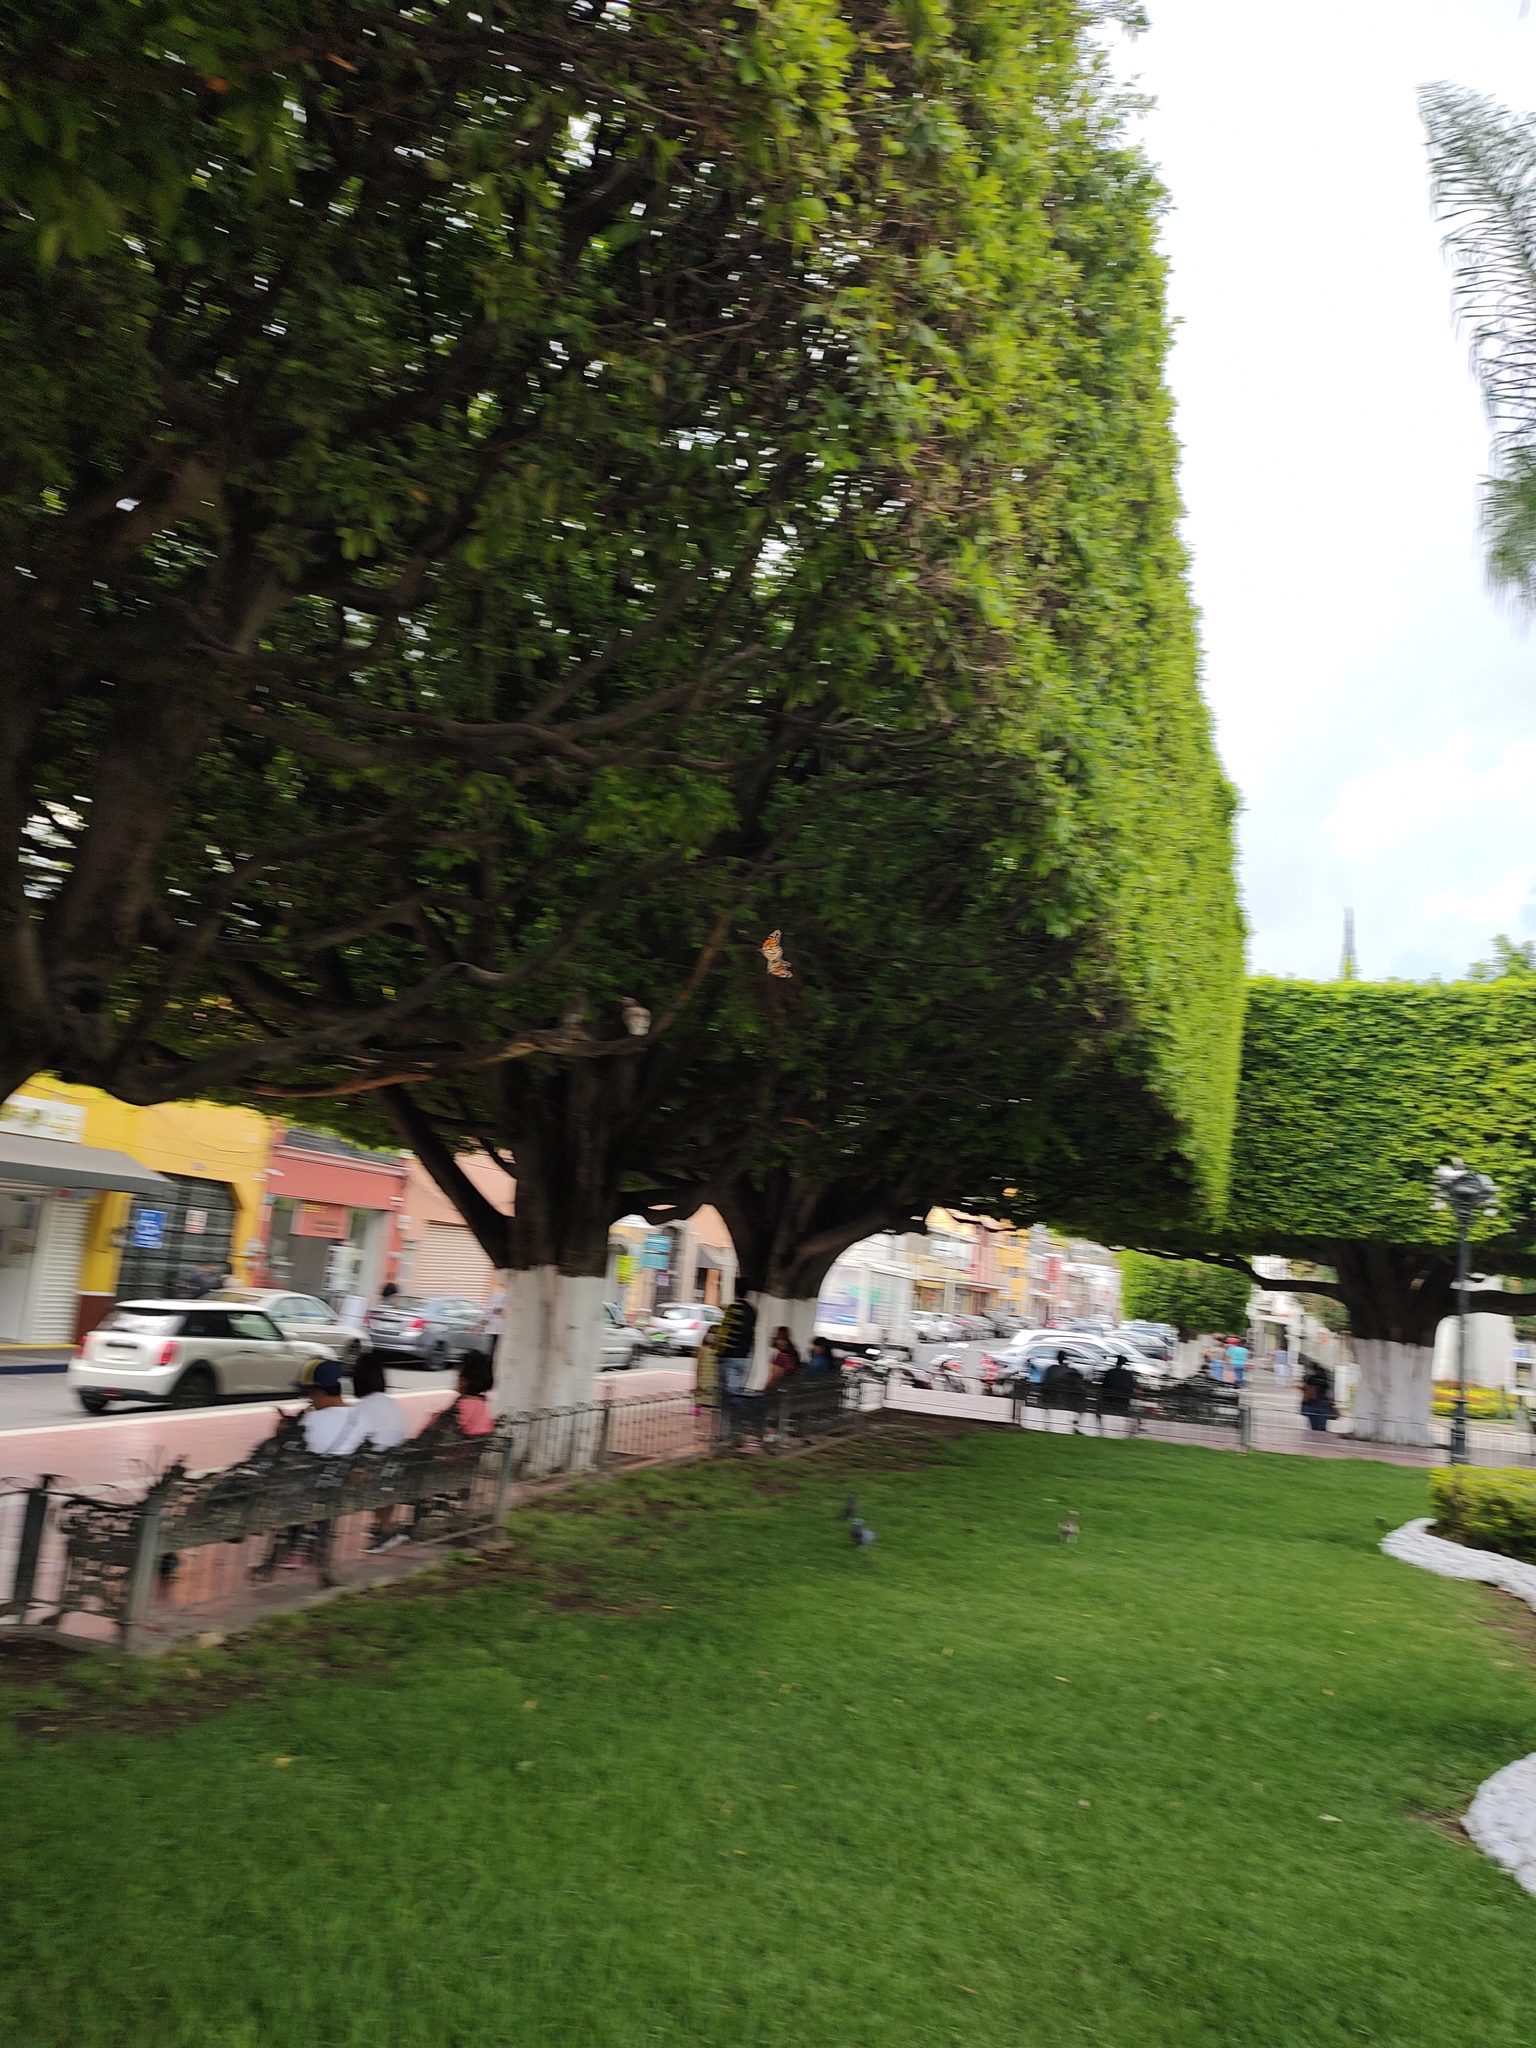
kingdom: Animalia
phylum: Arthropoda
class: Insecta
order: Lepidoptera
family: Nymphalidae
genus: Danaus
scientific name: Danaus plexippus
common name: Monarch
